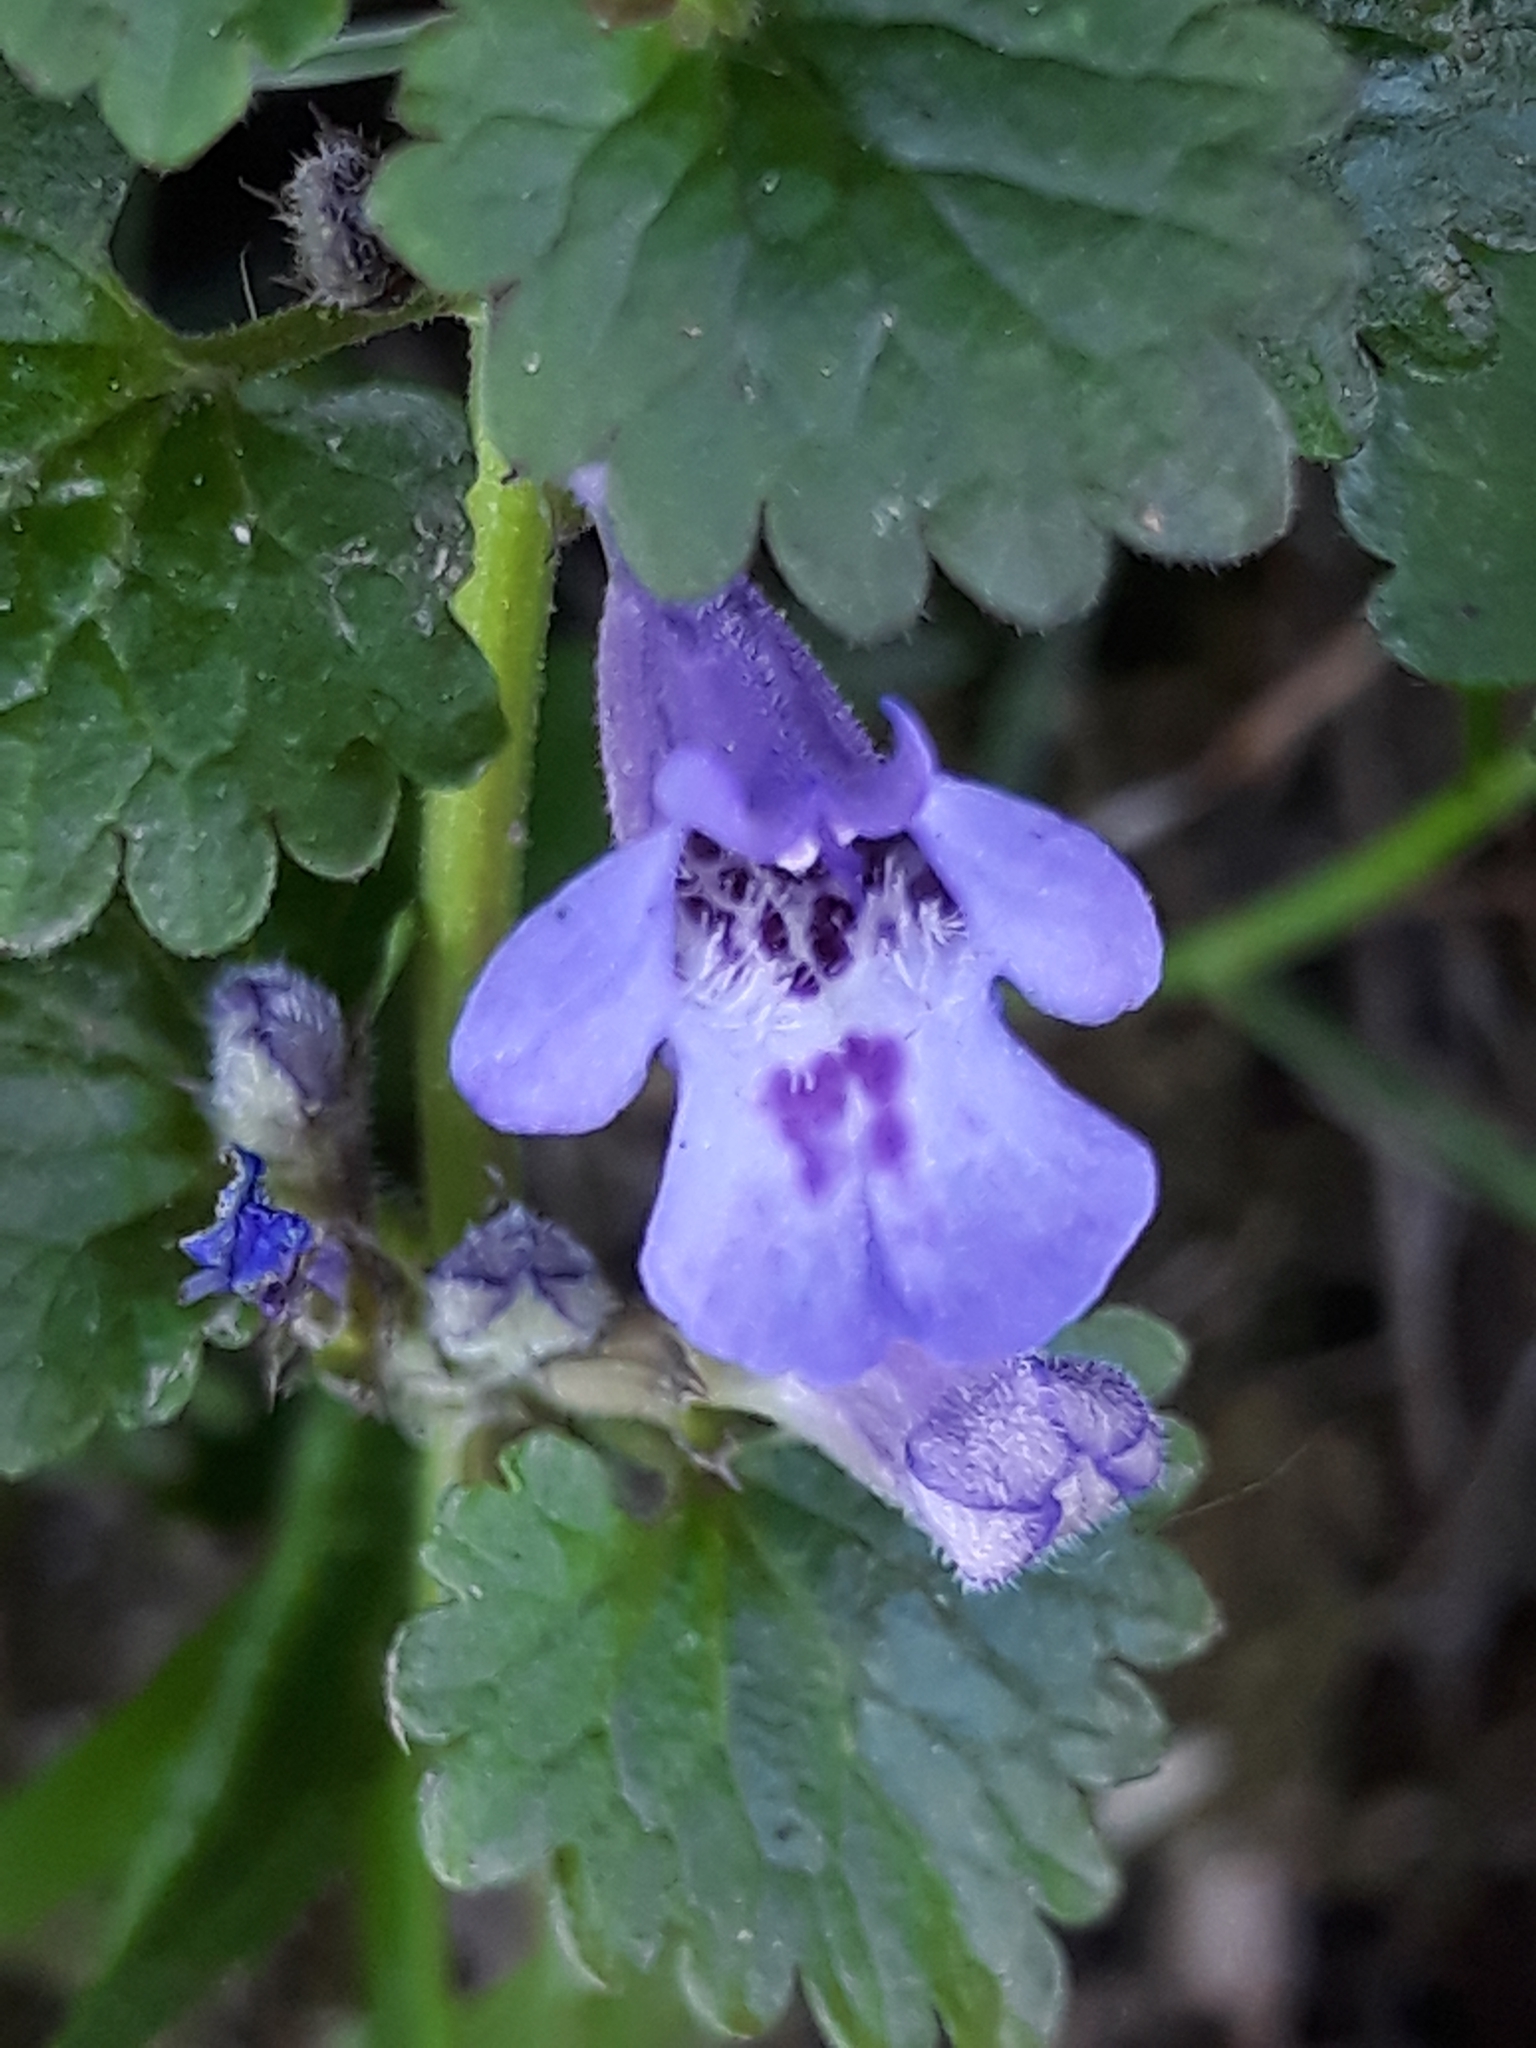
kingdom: Plantae
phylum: Tracheophyta
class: Magnoliopsida
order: Lamiales
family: Lamiaceae
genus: Glechoma
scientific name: Glechoma hederacea
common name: Ground ivy
